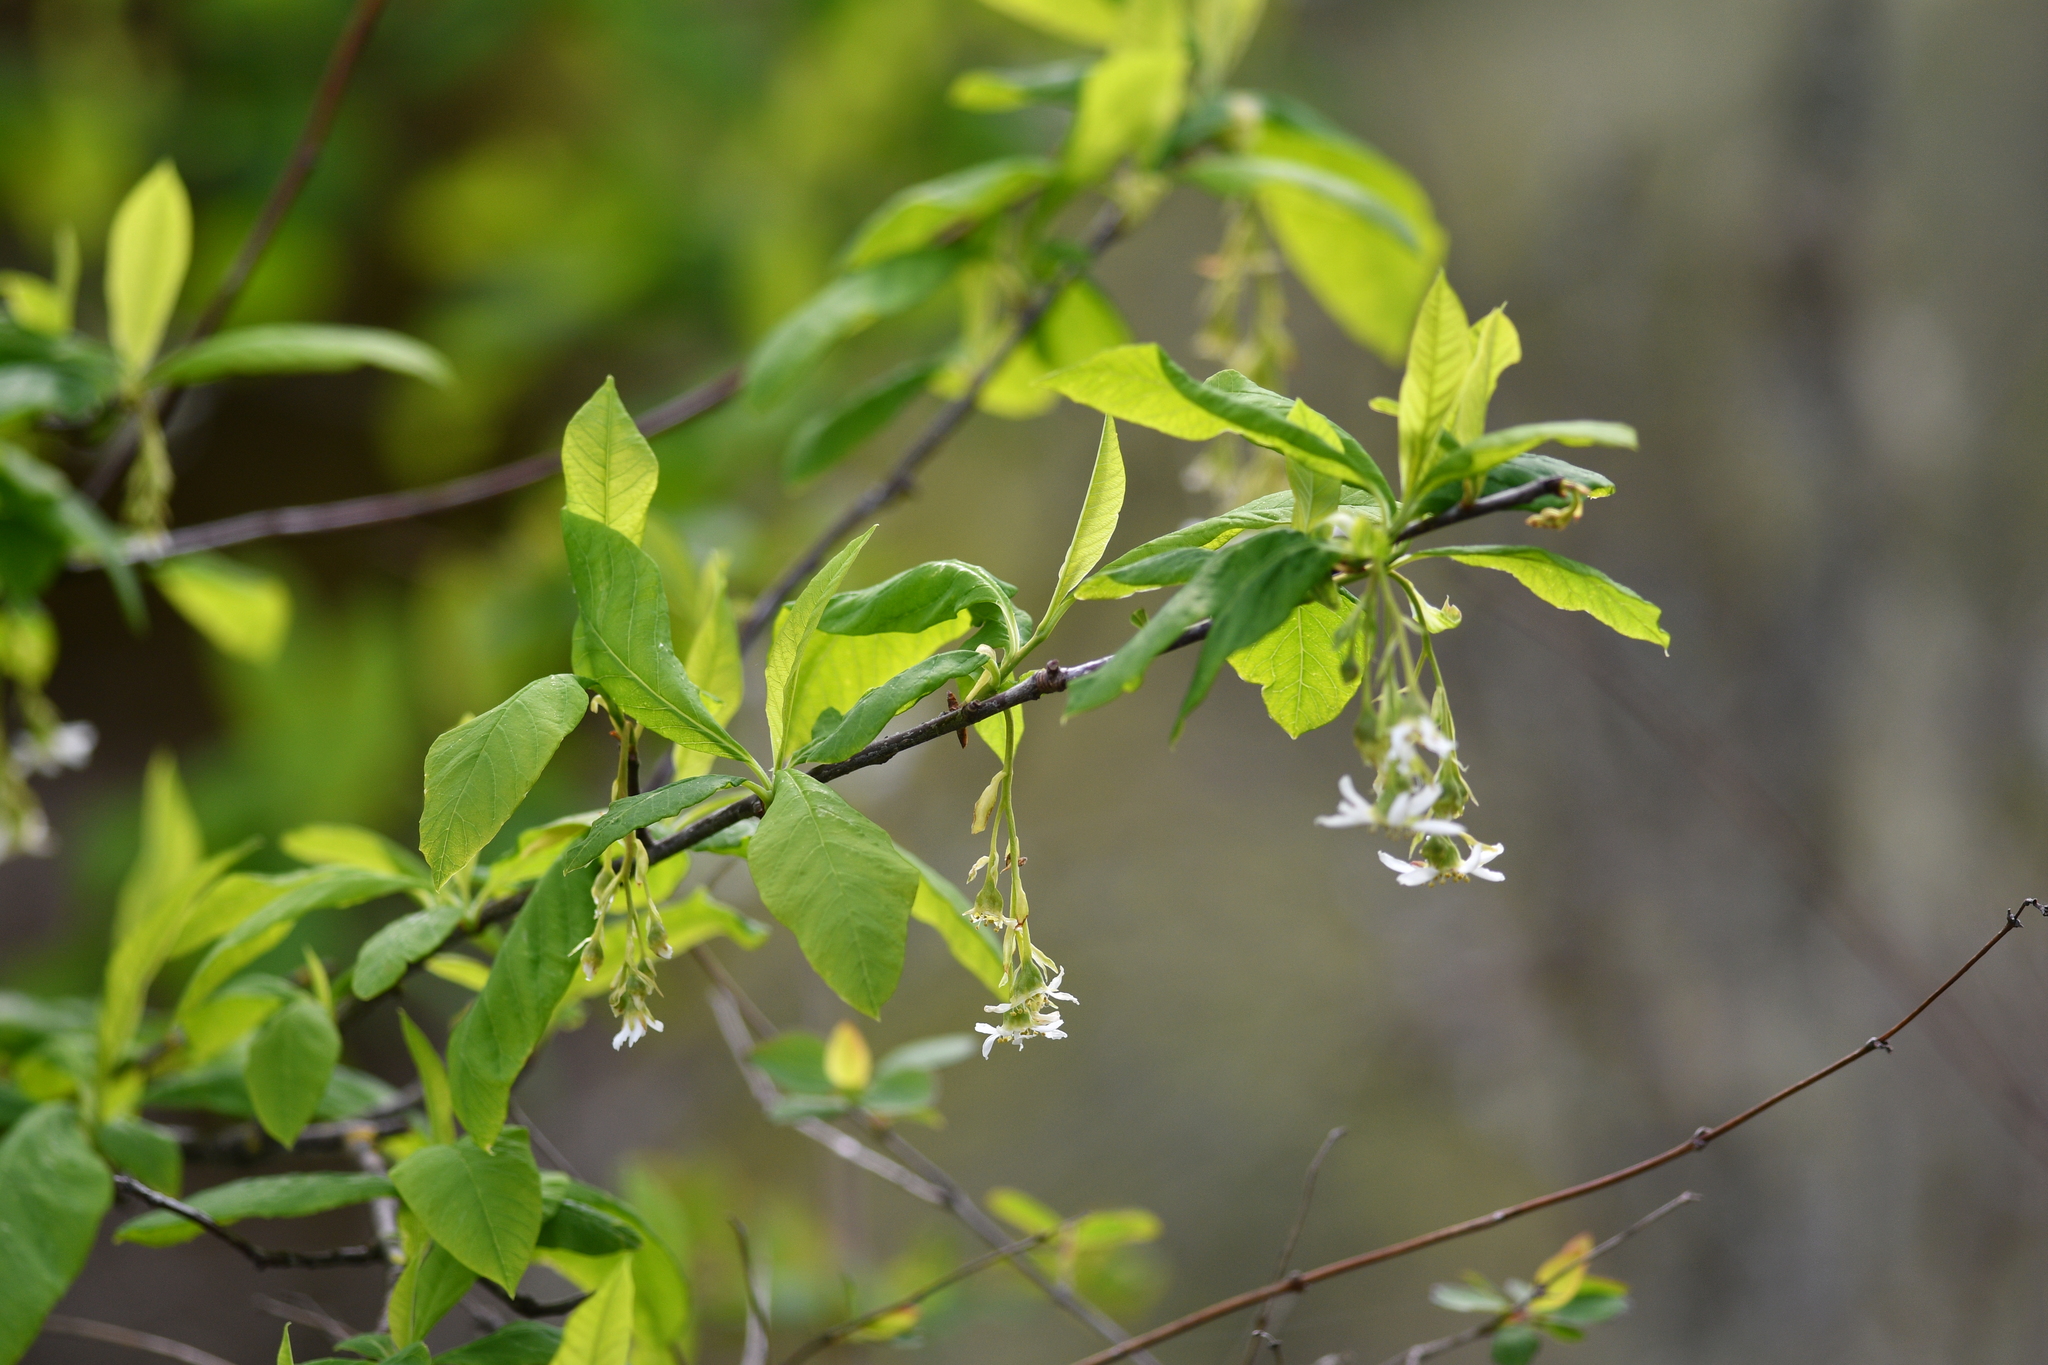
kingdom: Plantae
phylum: Tracheophyta
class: Magnoliopsida
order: Rosales
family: Rosaceae
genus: Oemleria
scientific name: Oemleria cerasiformis
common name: Osoberry
